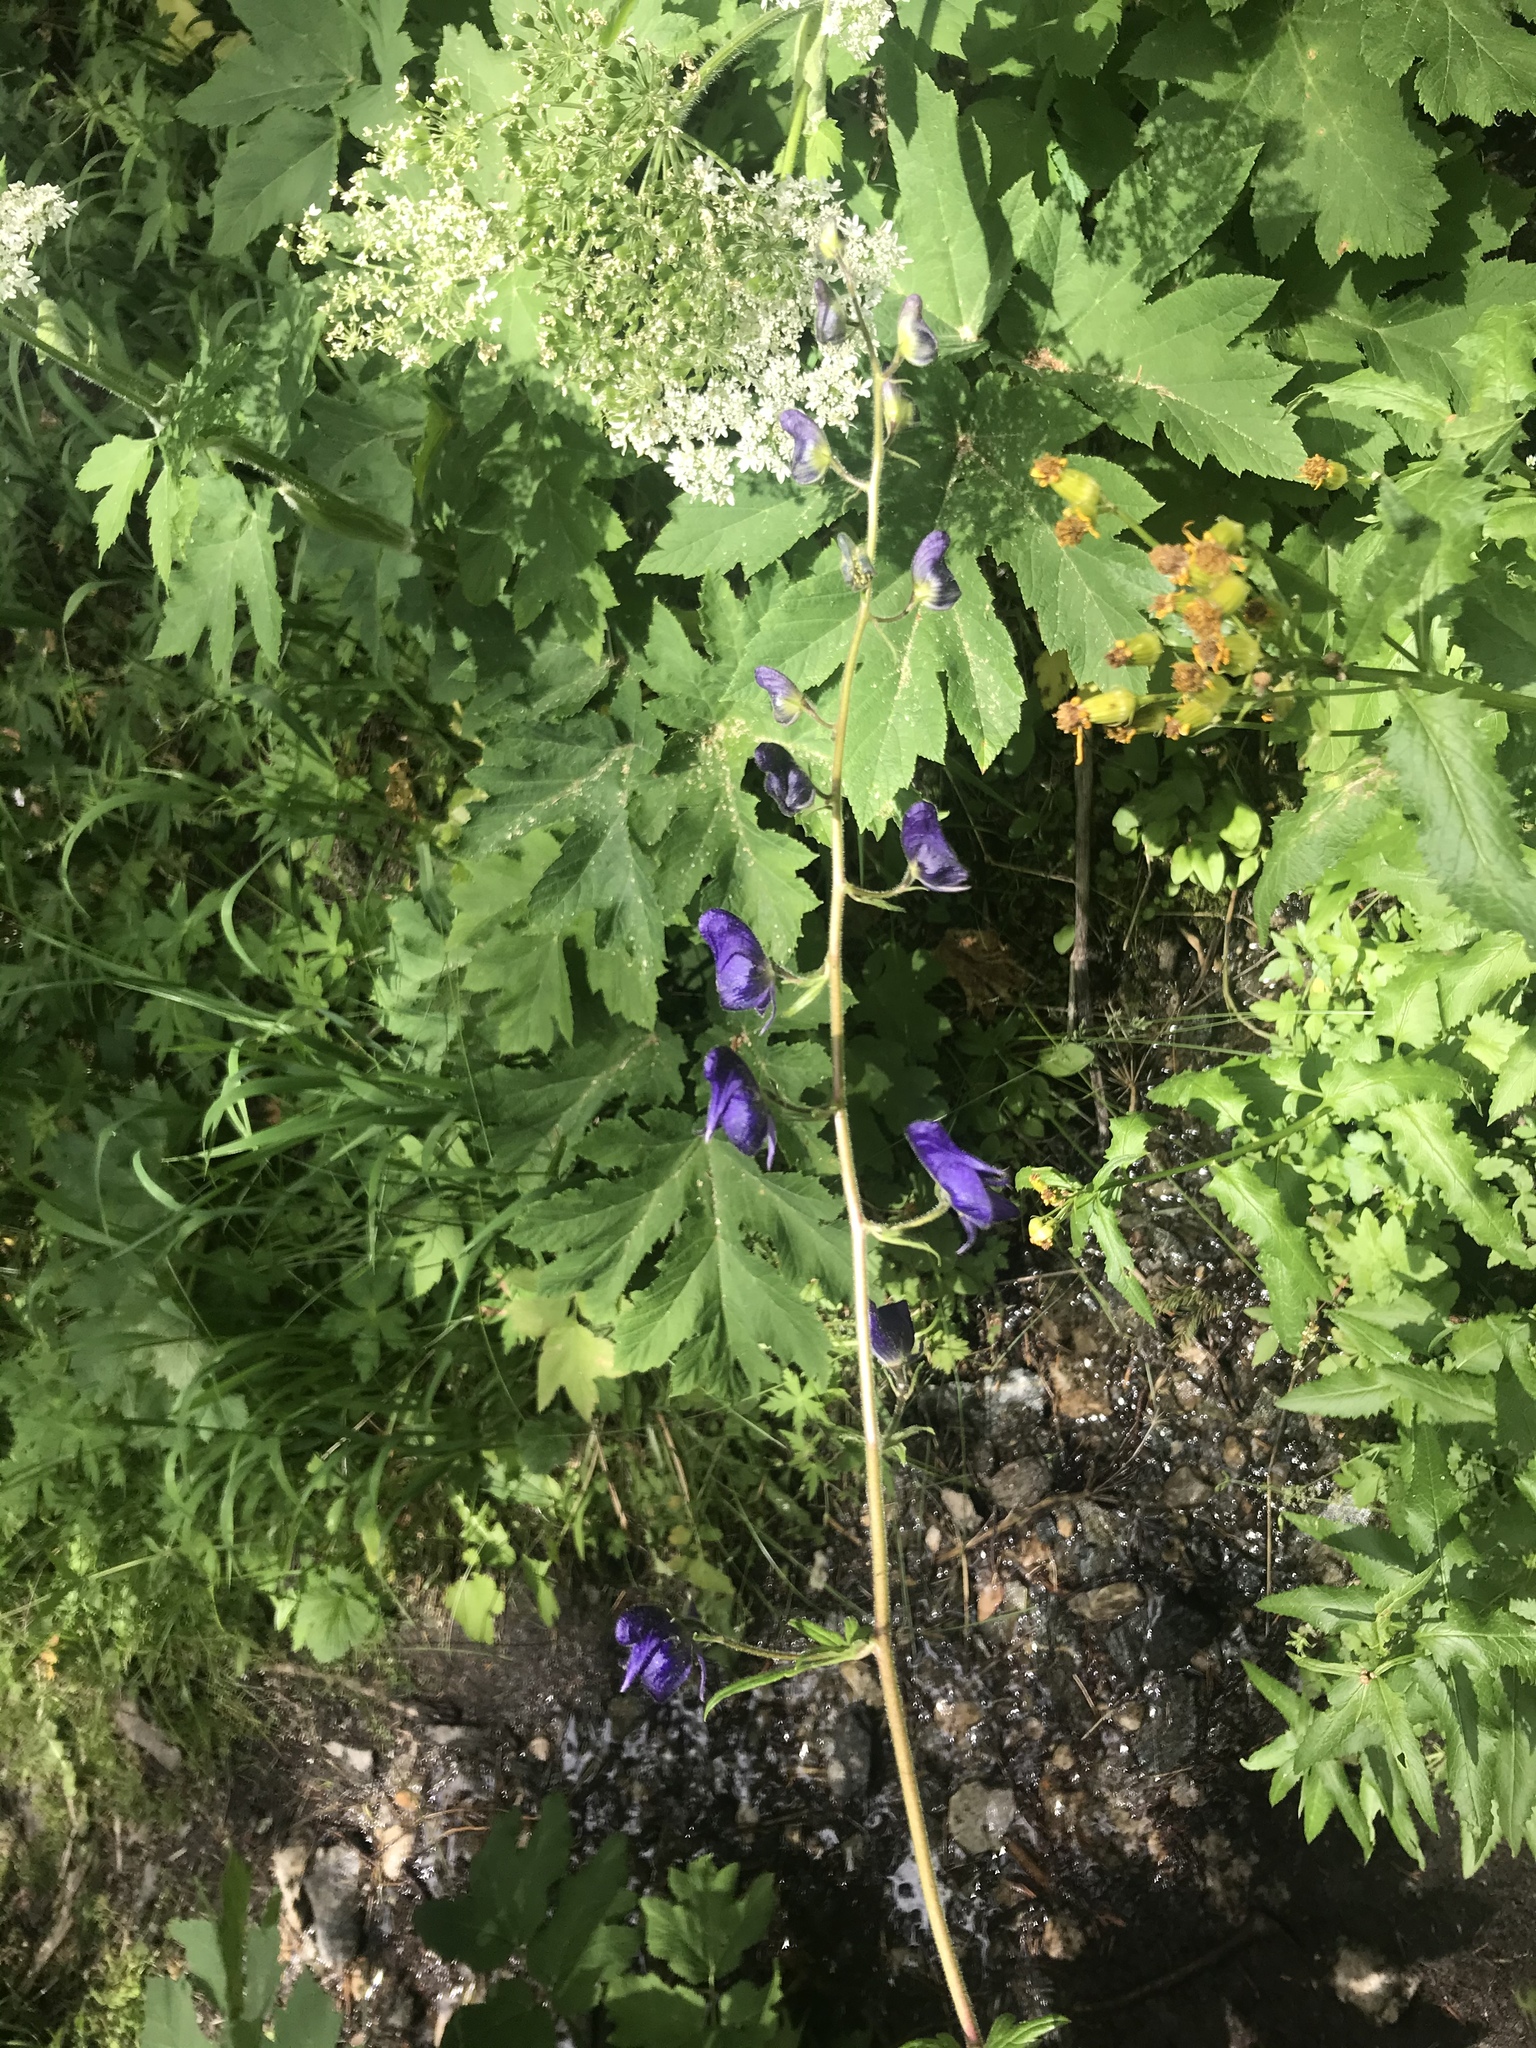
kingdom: Plantae
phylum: Tracheophyta
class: Magnoliopsida
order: Ranunculales
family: Ranunculaceae
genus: Aconitum
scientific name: Aconitum columbianum
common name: Columbia aconite
